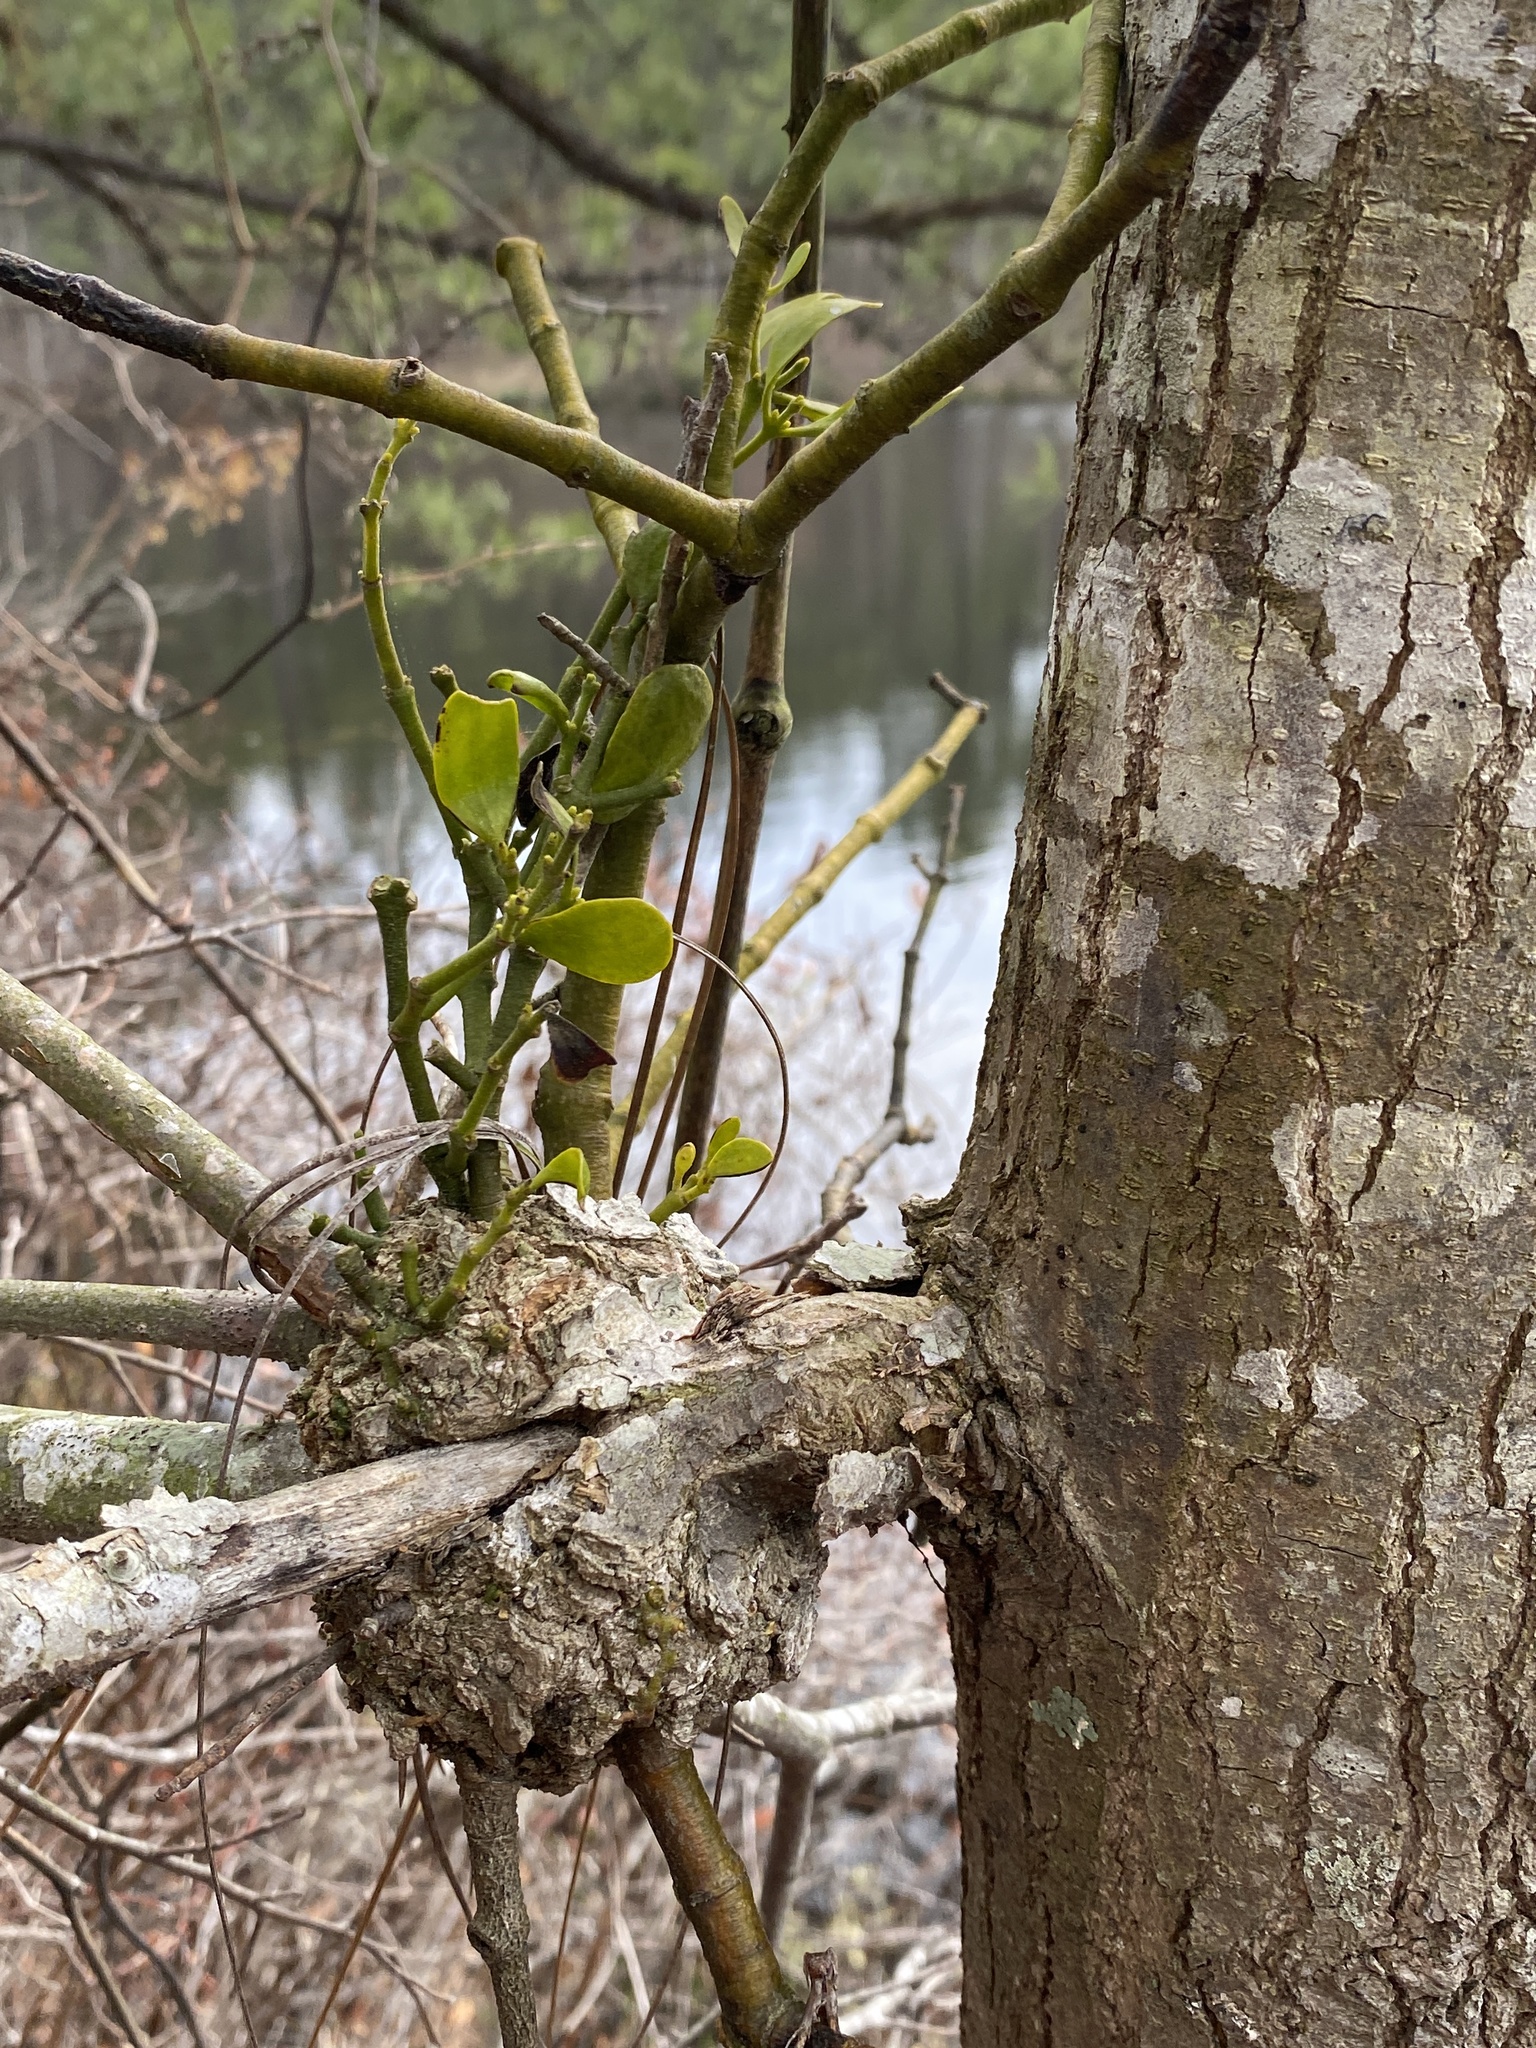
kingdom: Plantae
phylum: Tracheophyta
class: Magnoliopsida
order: Santalales
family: Viscaceae
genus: Phoradendron
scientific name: Phoradendron leucarpum
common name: Pacific mistletoe
